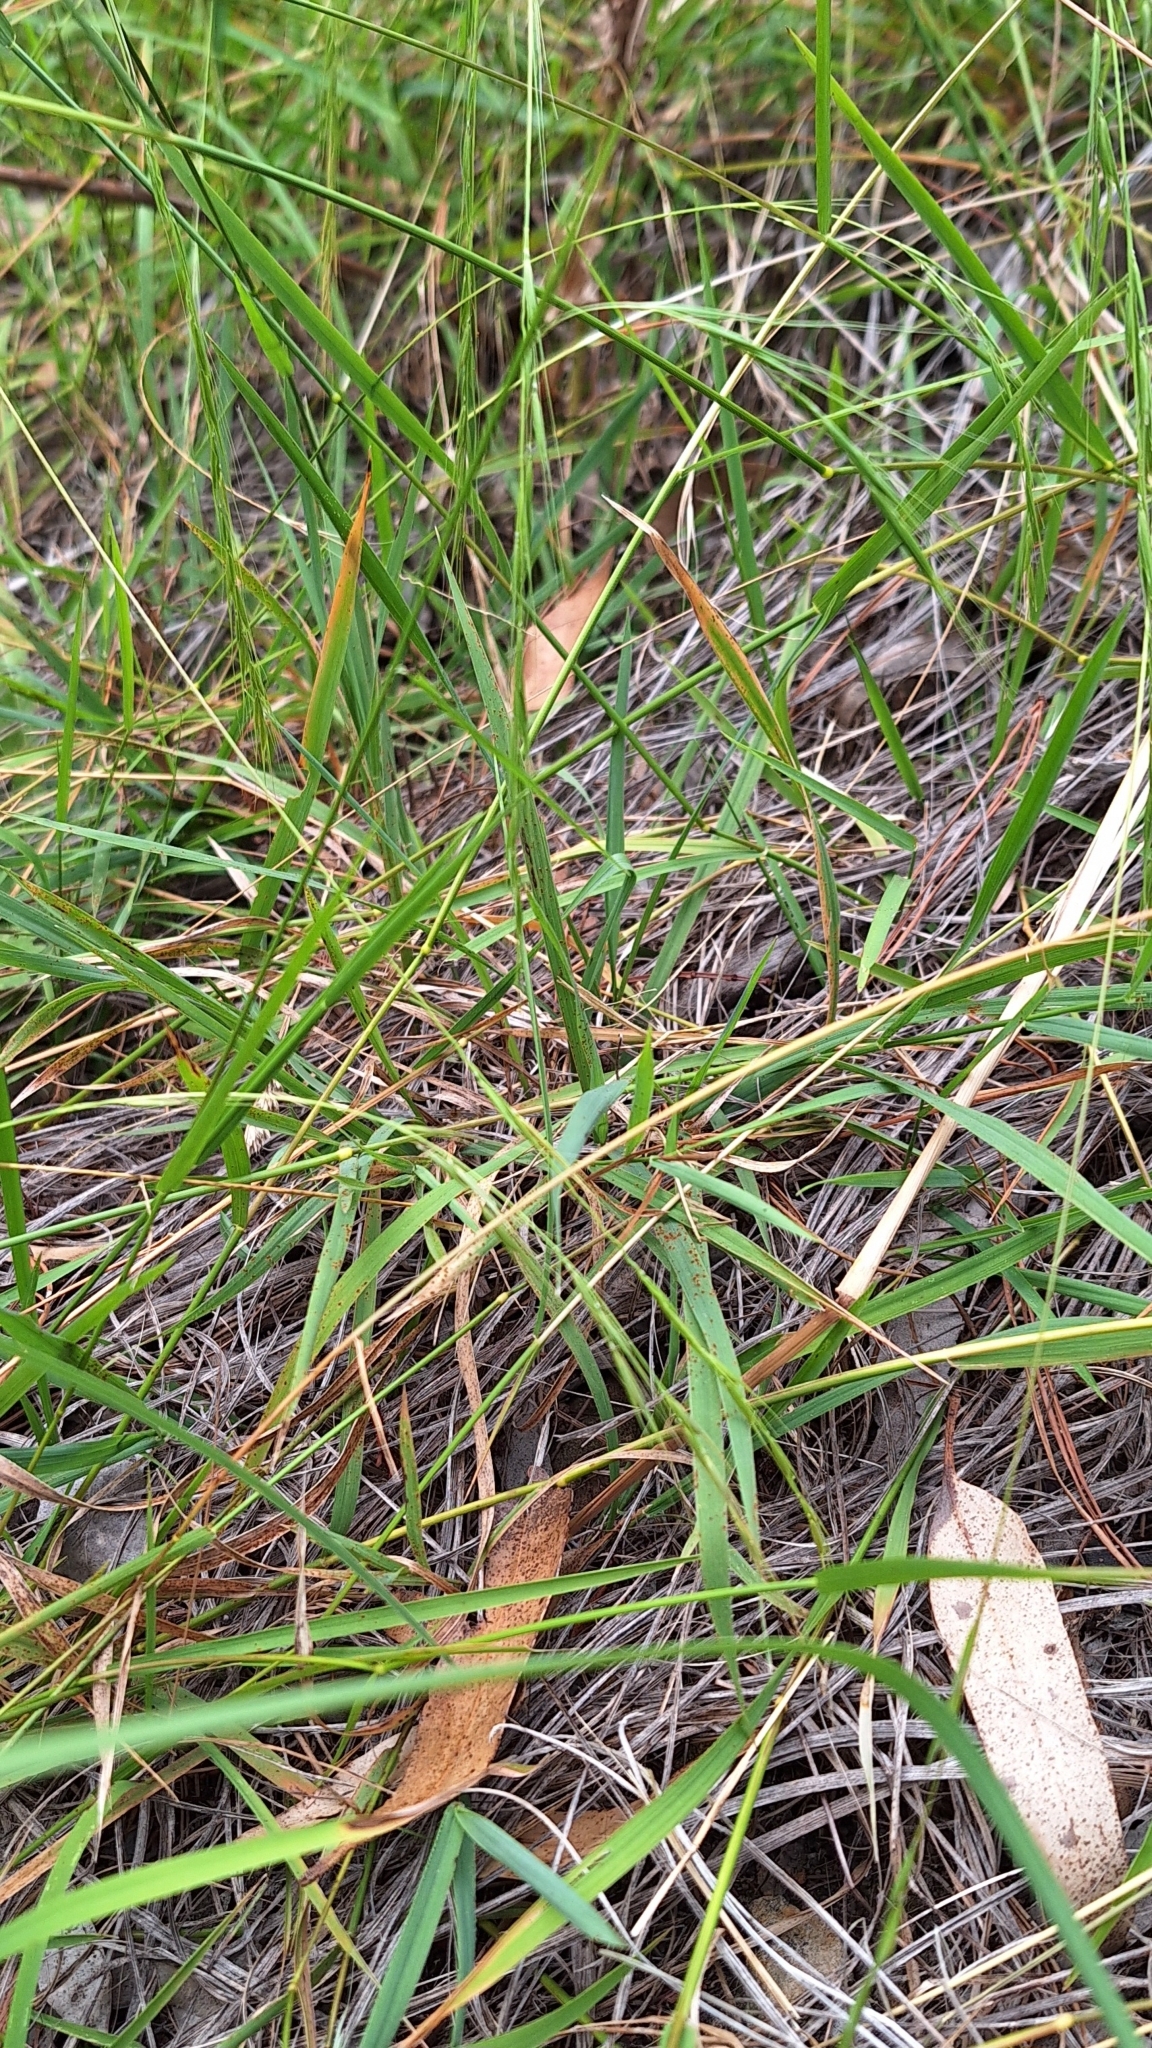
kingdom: Plantae
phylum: Tracheophyta
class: Liliopsida
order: Poales
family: Poaceae
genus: Microlaena
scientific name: Microlaena stipoides
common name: Meadow ricegrass
